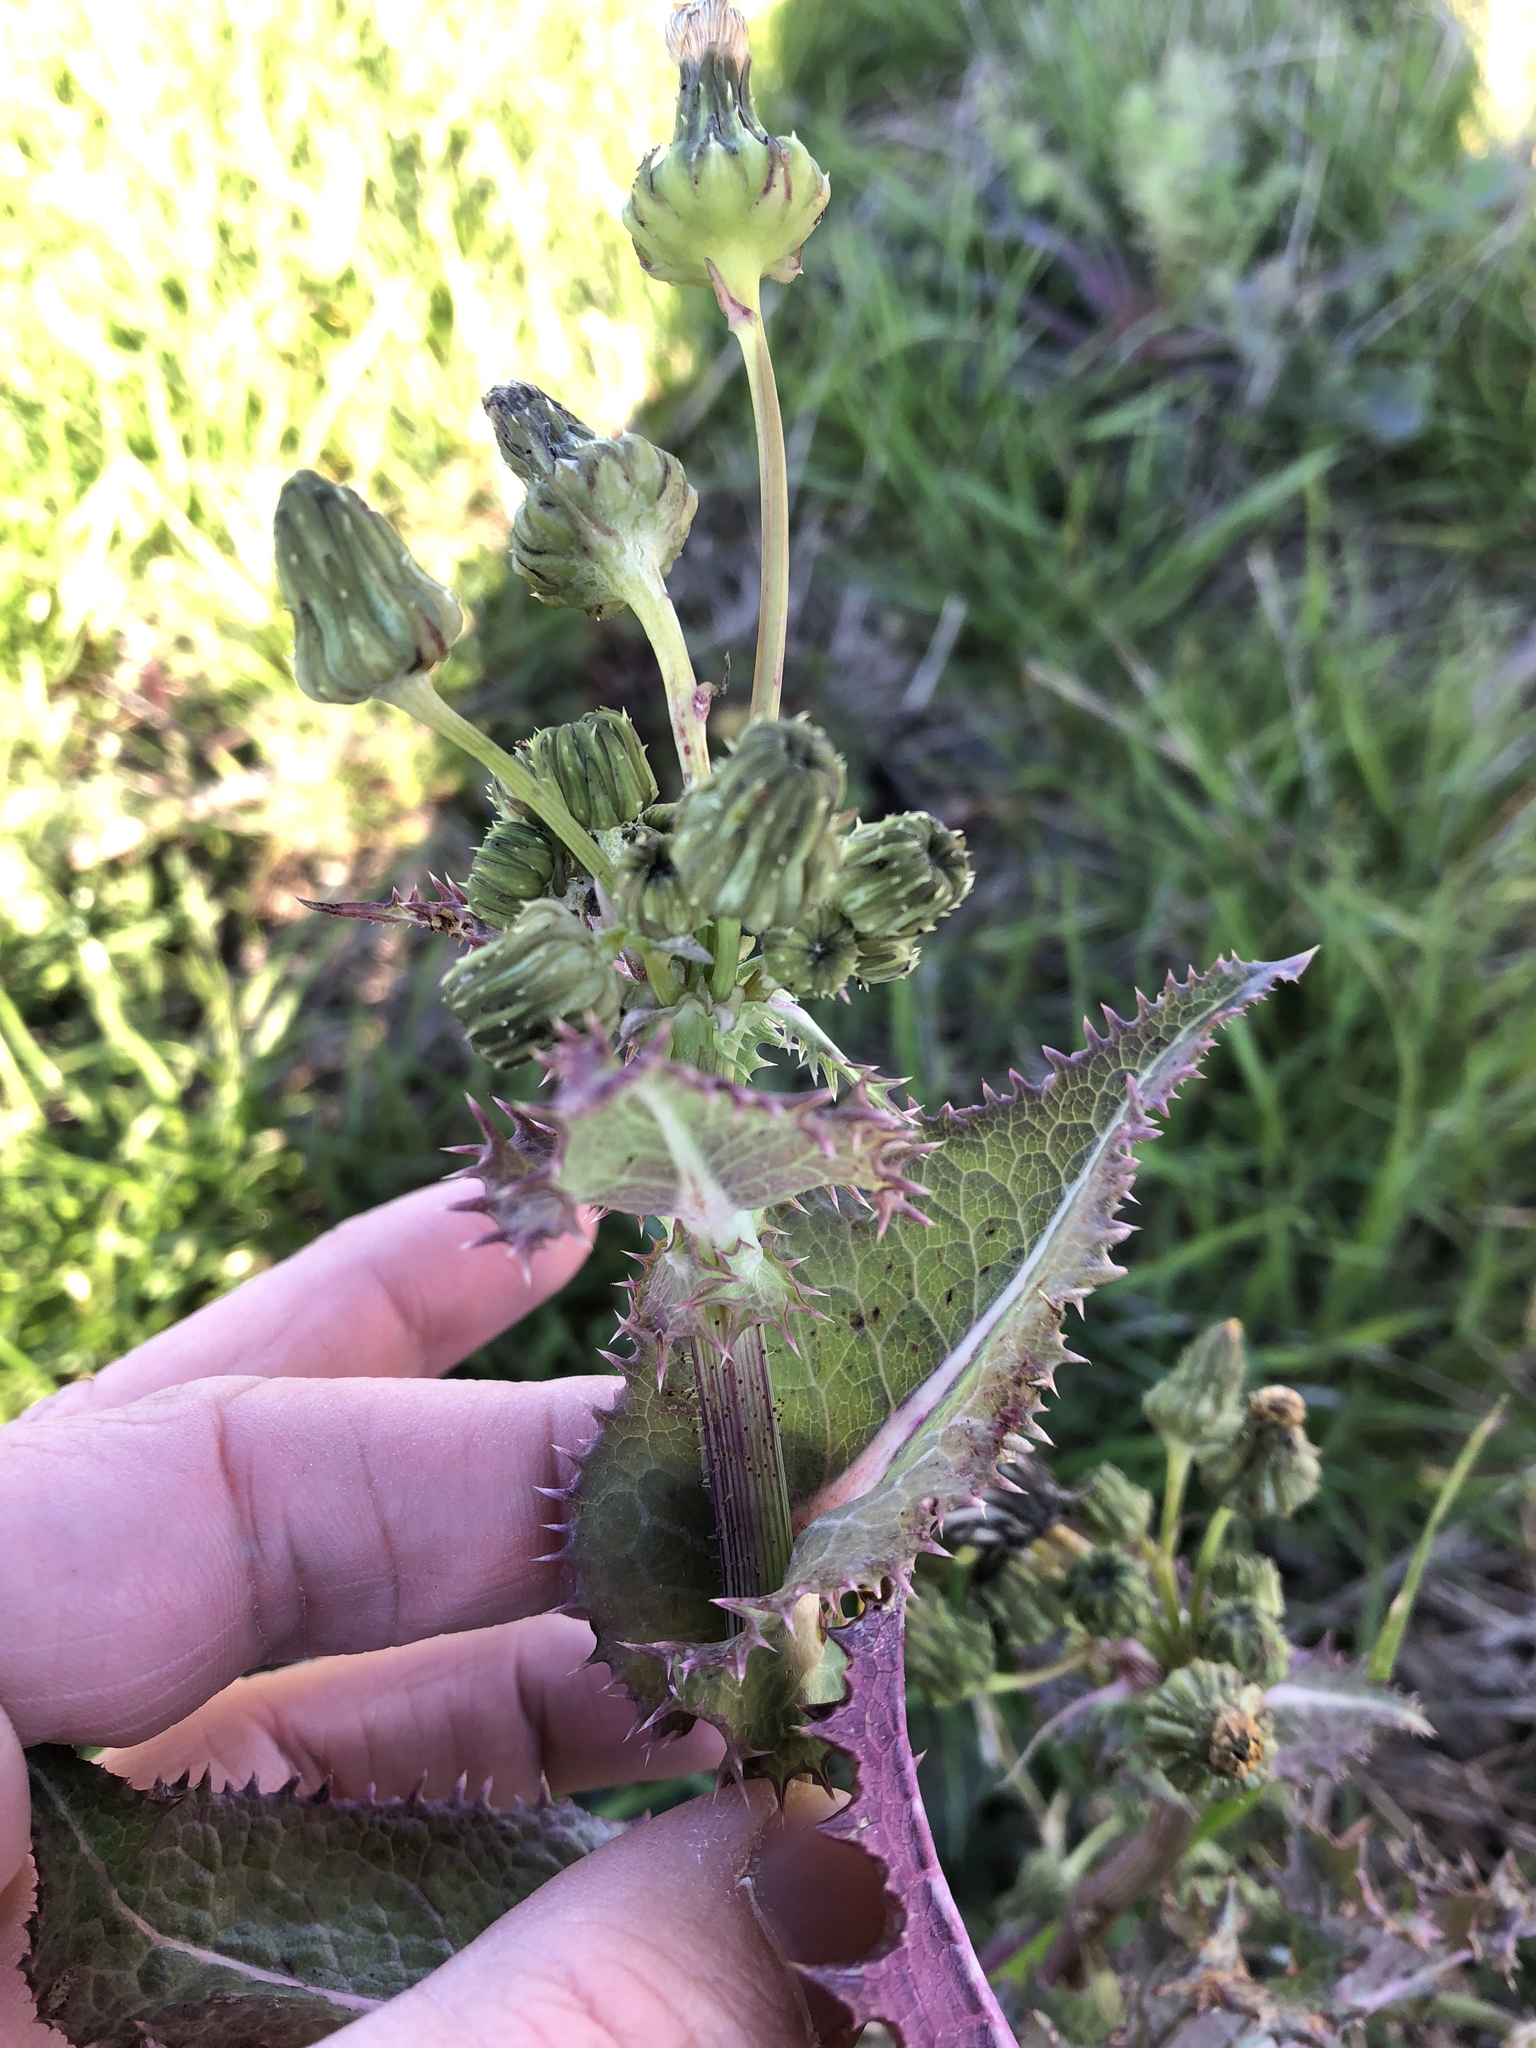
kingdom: Plantae
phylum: Tracheophyta
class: Magnoliopsida
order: Asterales
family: Asteraceae
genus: Sonchus
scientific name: Sonchus asper
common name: Prickly sow-thistle
